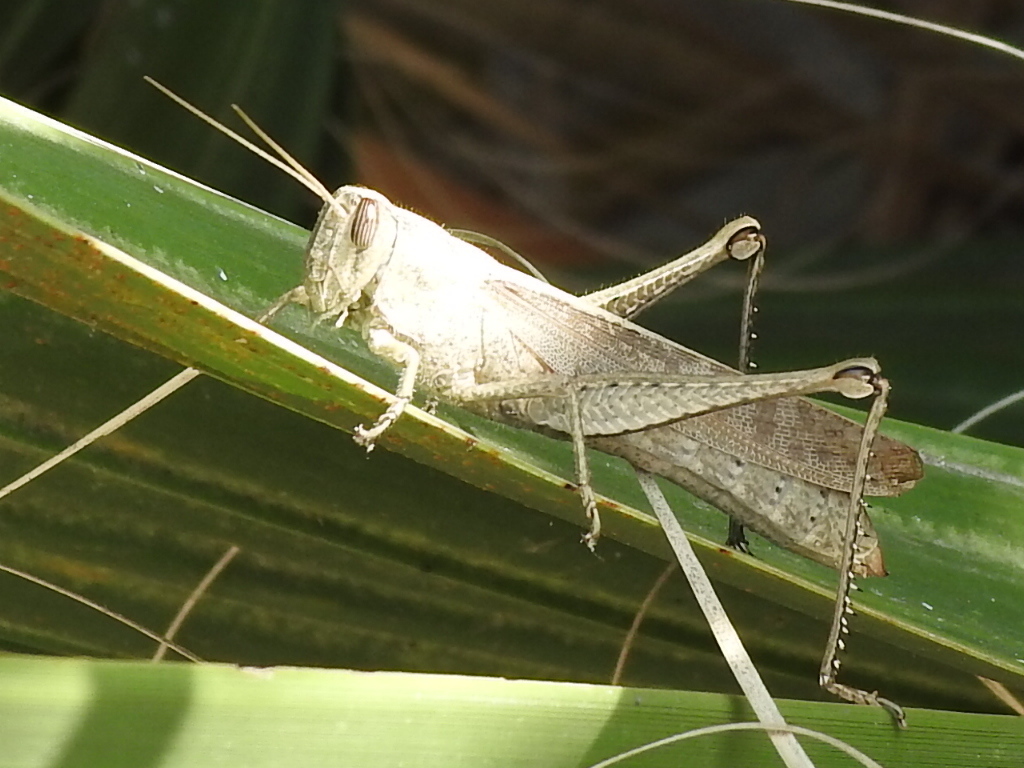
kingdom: Animalia
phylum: Arthropoda
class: Insecta
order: Orthoptera
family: Acrididae
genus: Schistocerca
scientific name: Schistocerca impleta
